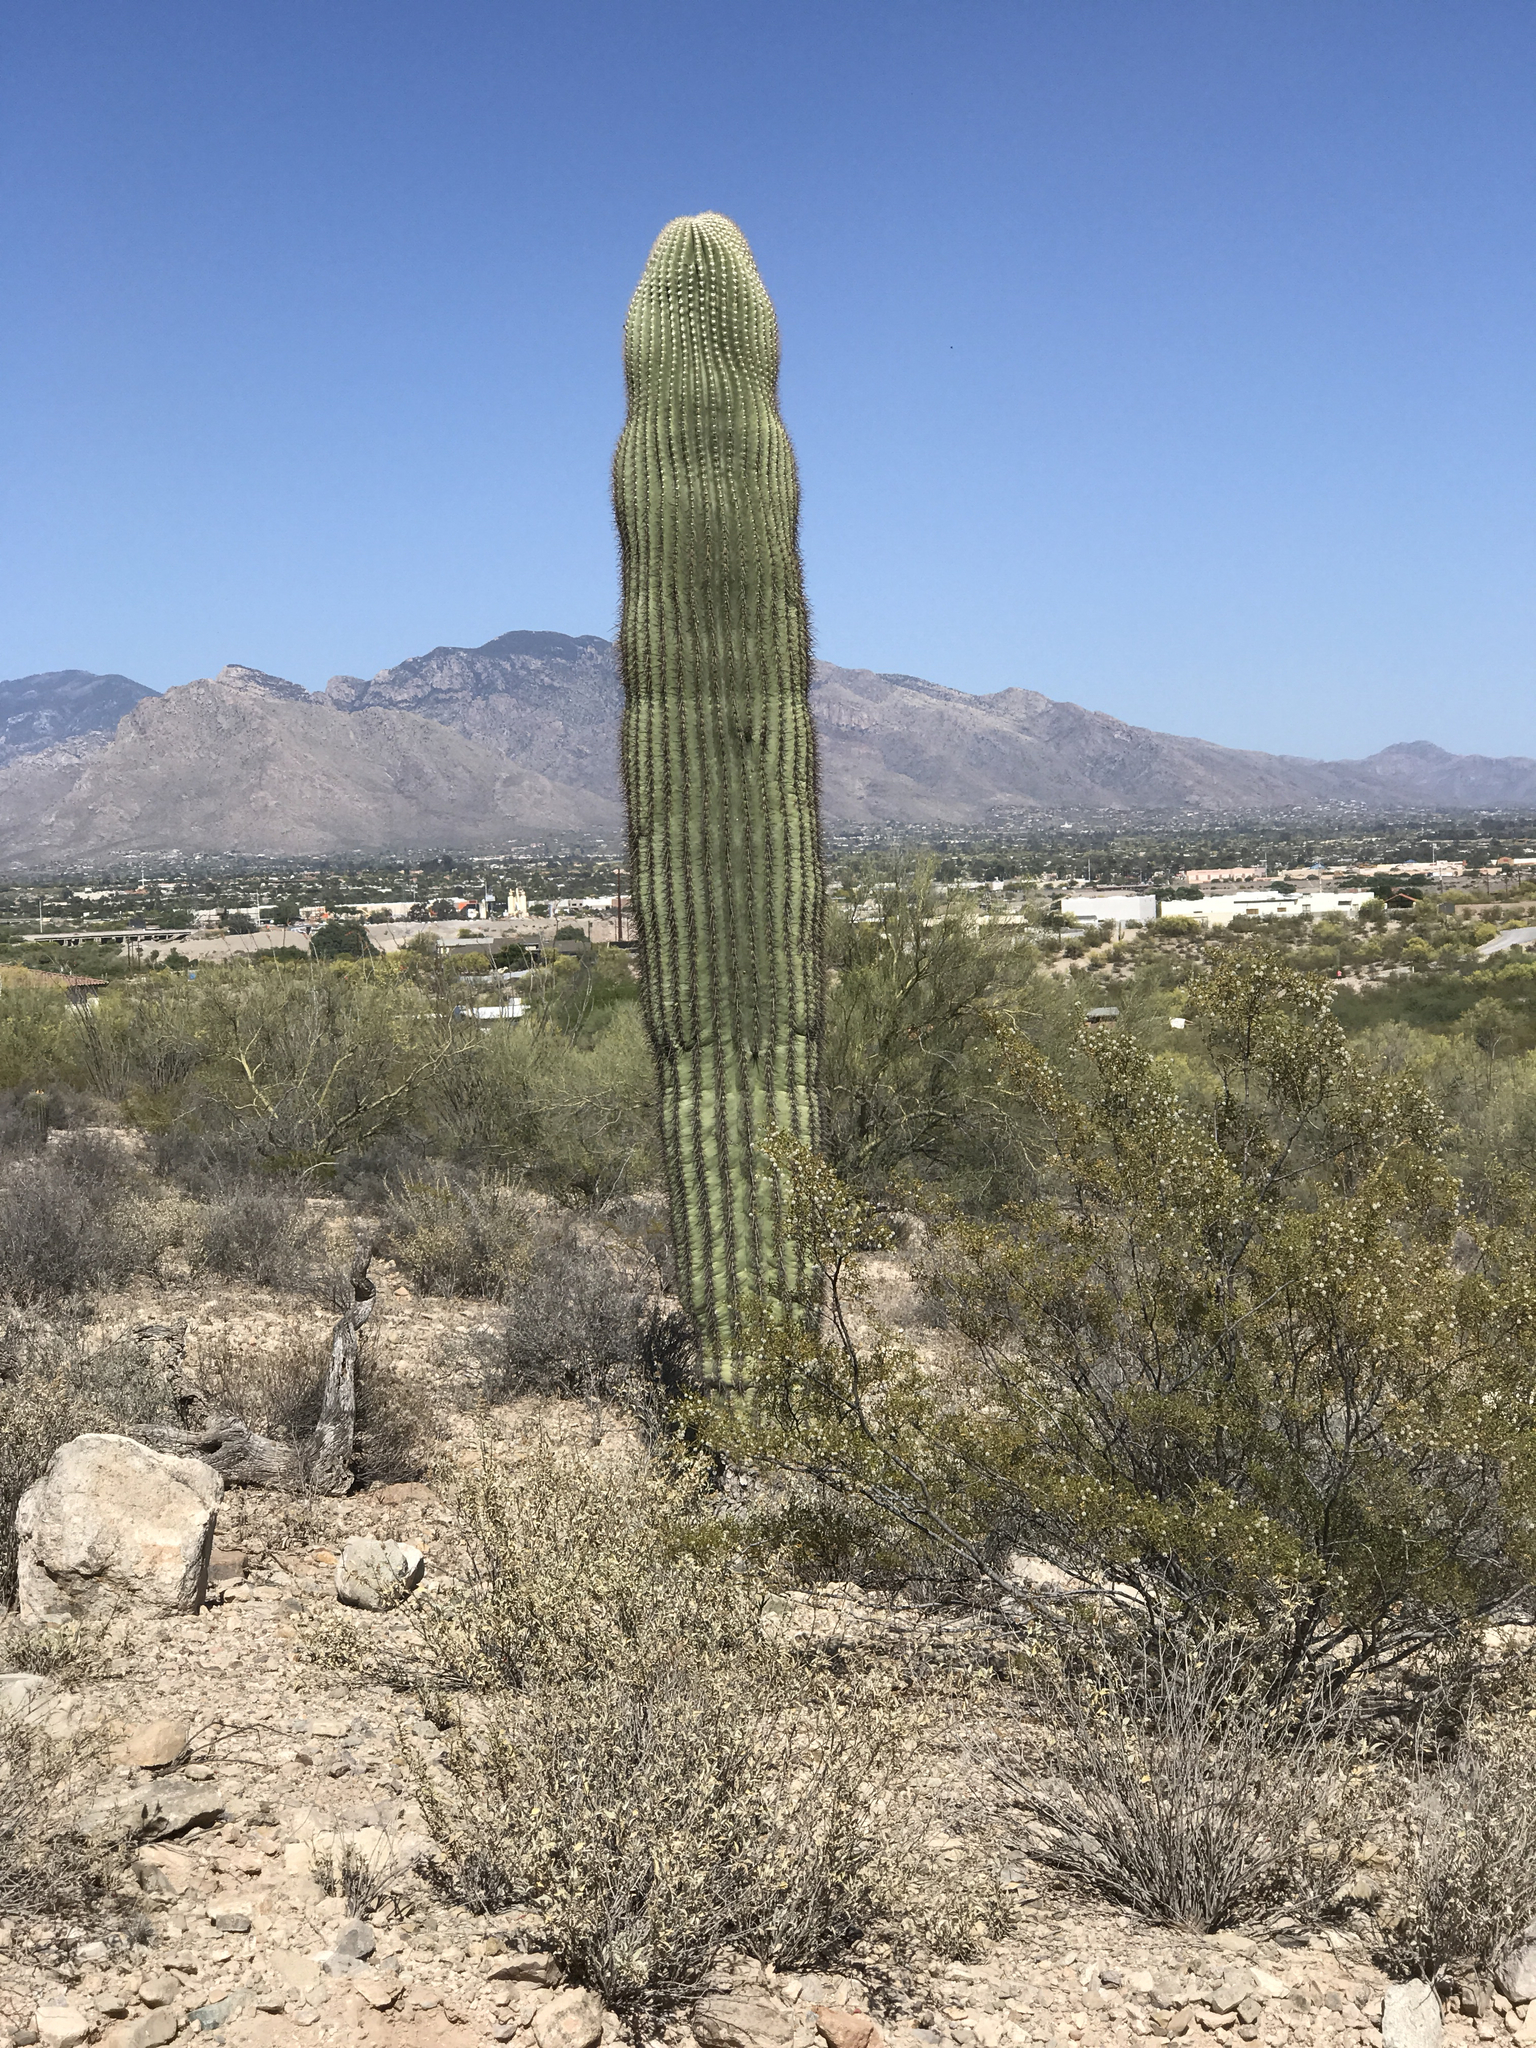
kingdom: Plantae
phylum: Tracheophyta
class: Magnoliopsida
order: Caryophyllales
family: Cactaceae
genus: Carnegiea
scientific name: Carnegiea gigantea
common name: Saguaro
